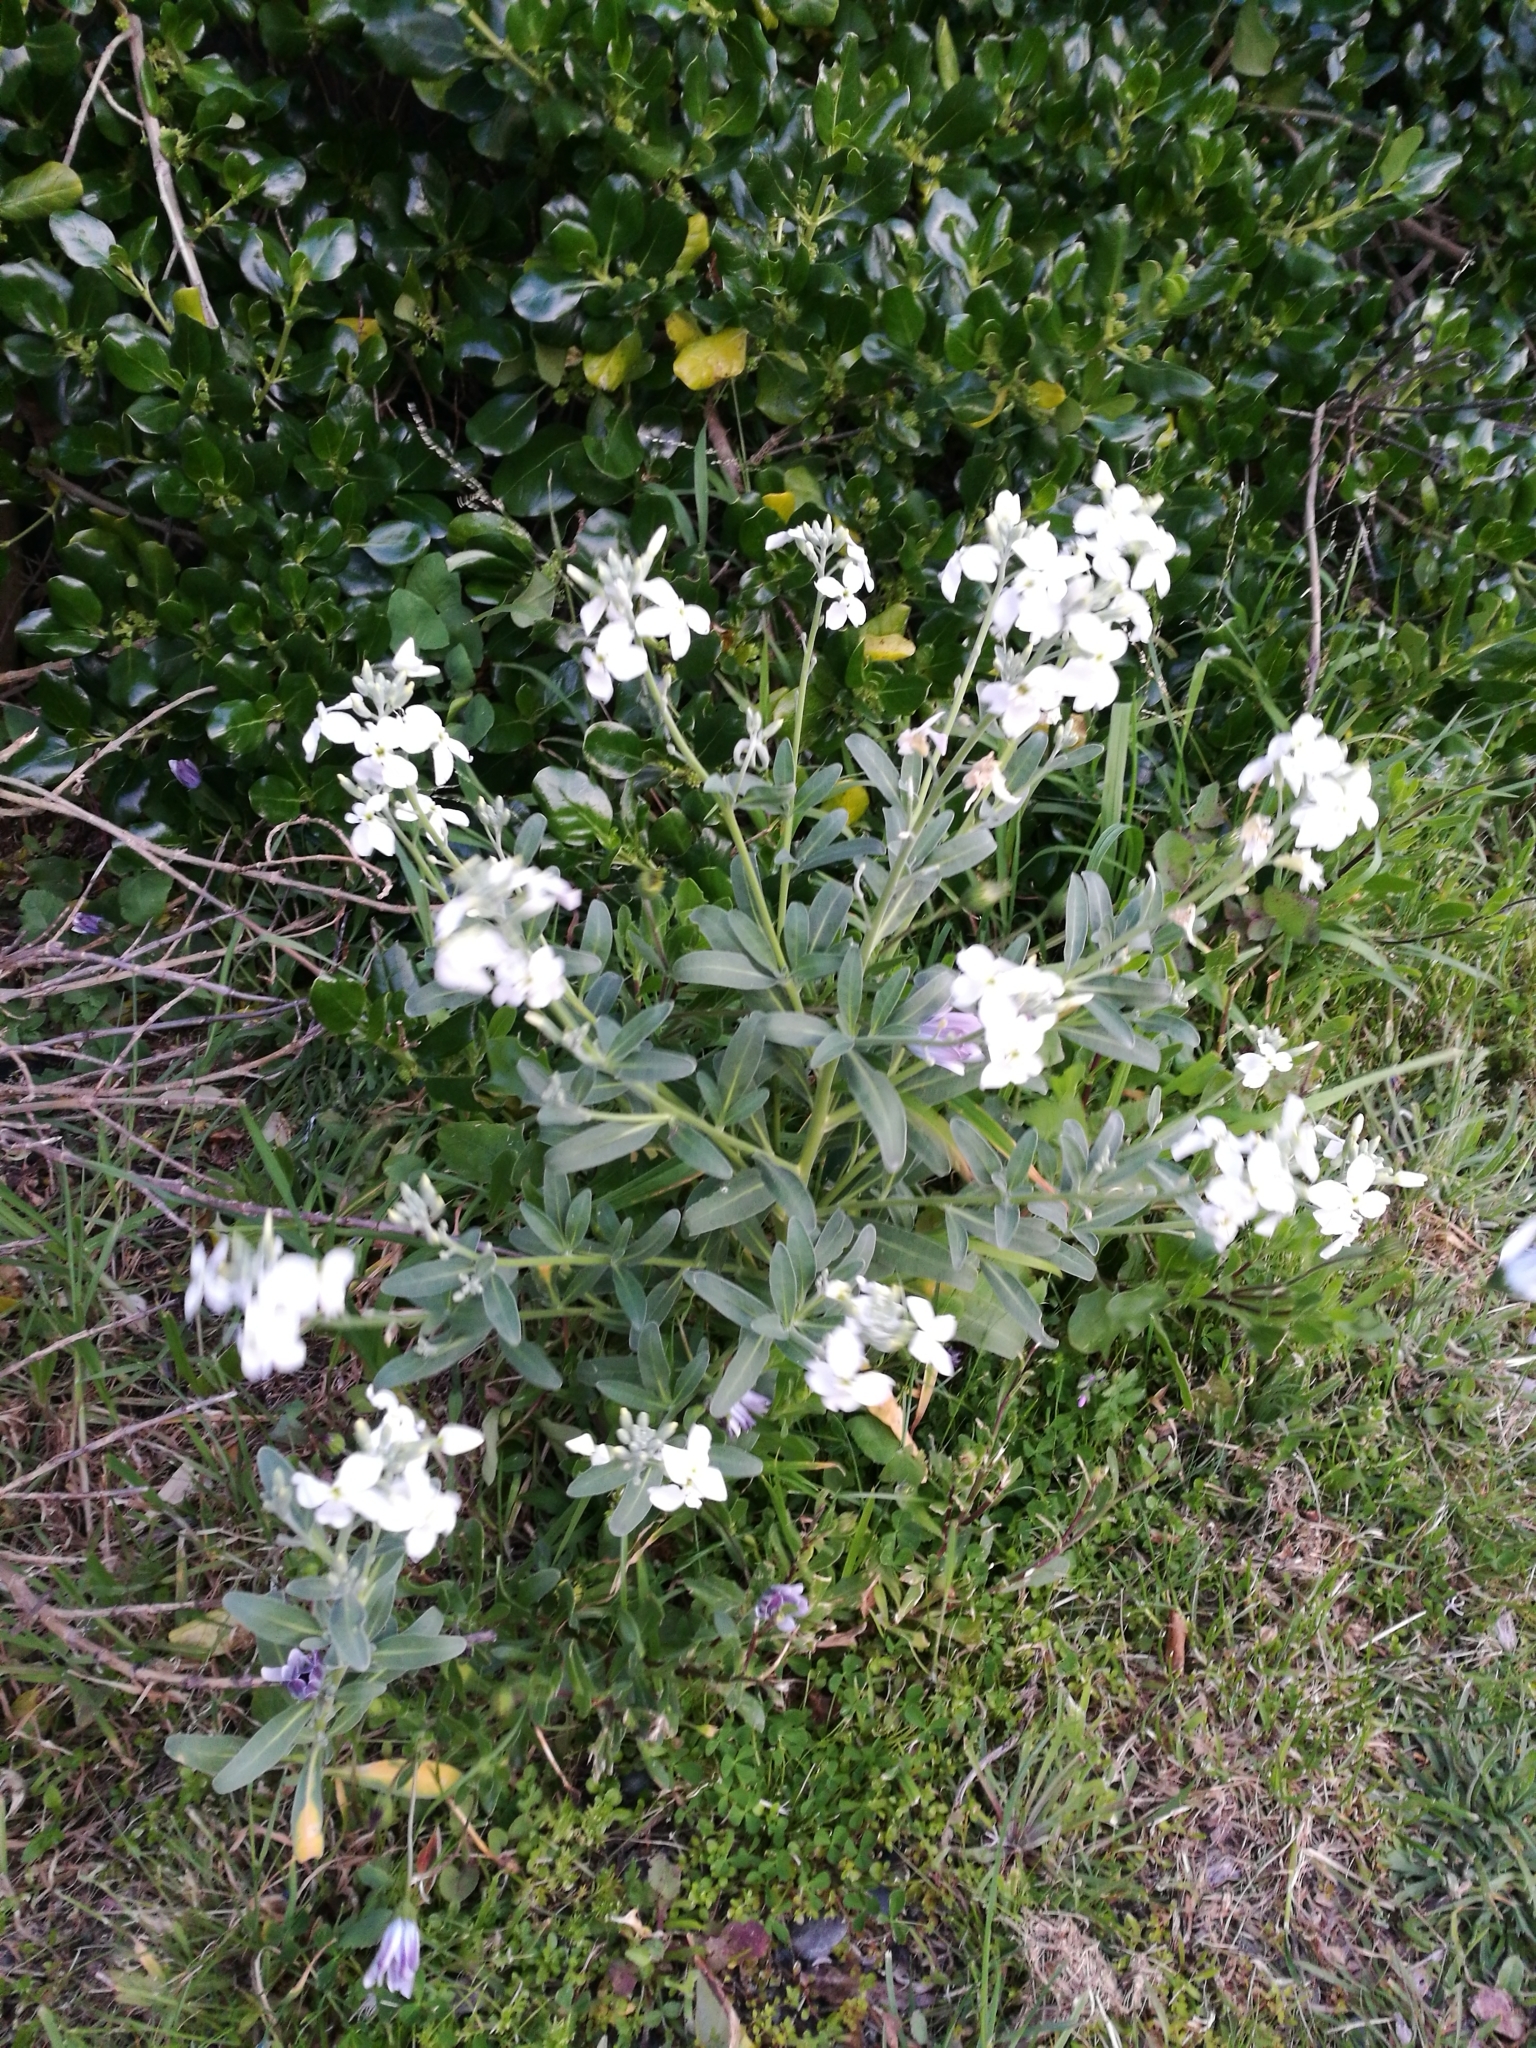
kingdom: Plantae
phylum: Tracheophyta
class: Magnoliopsida
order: Brassicales
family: Brassicaceae
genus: Matthiola
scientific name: Matthiola incana
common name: Hoary stock
